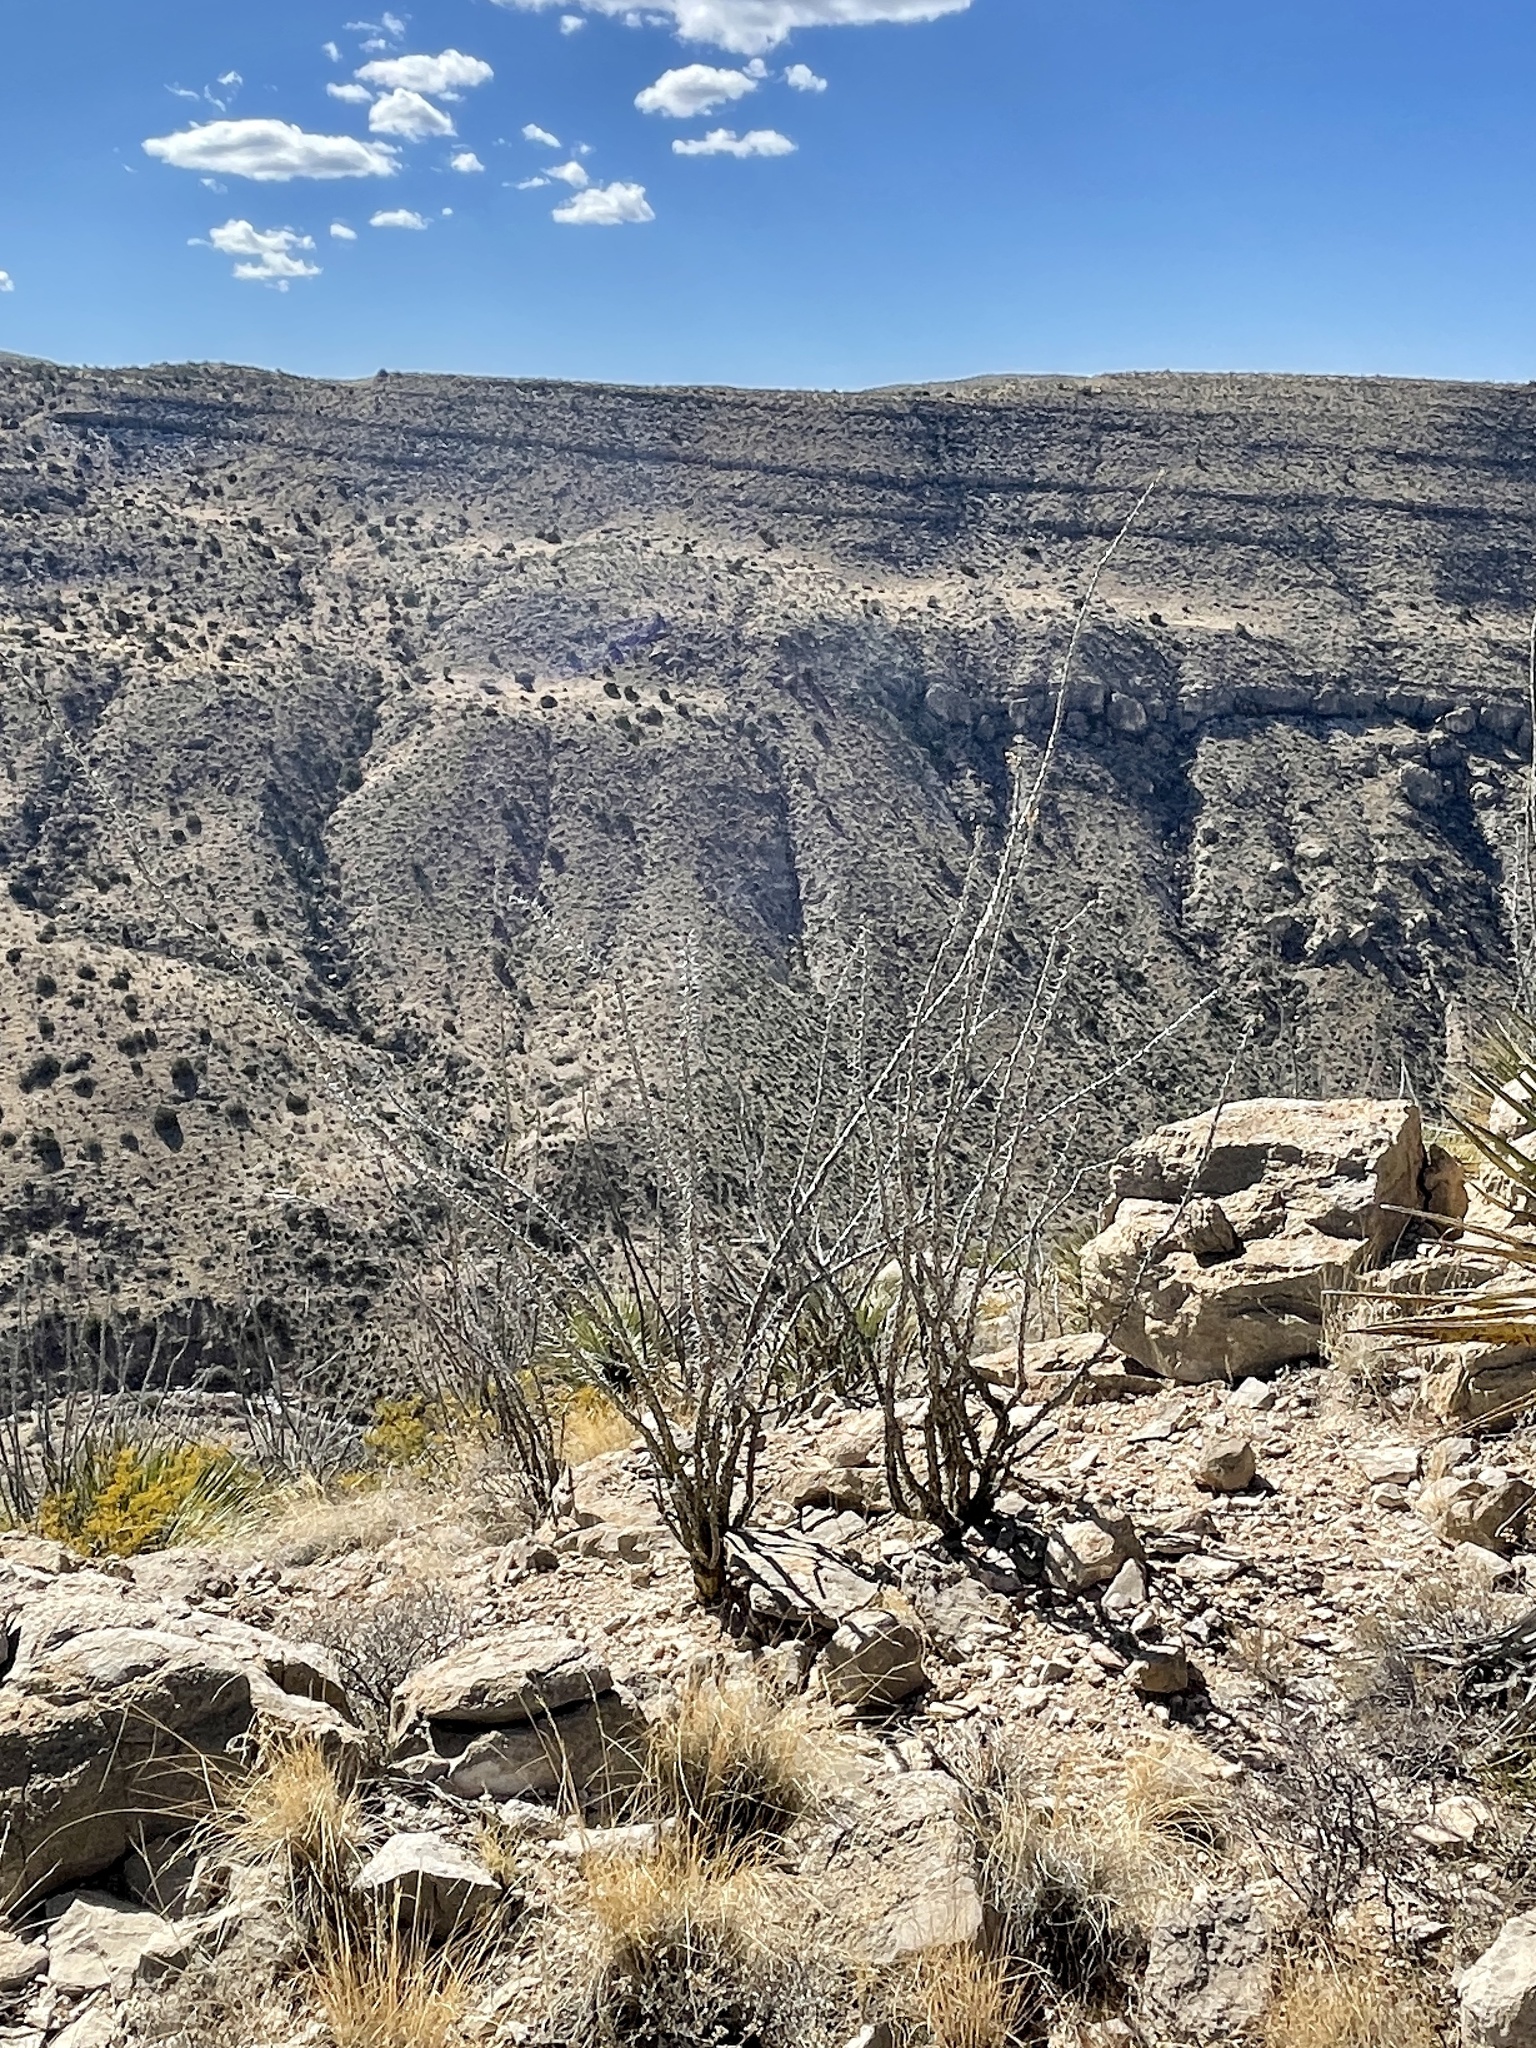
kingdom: Plantae
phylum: Tracheophyta
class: Magnoliopsida
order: Ericales
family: Fouquieriaceae
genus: Fouquieria
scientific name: Fouquieria splendens
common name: Vine-cactus
